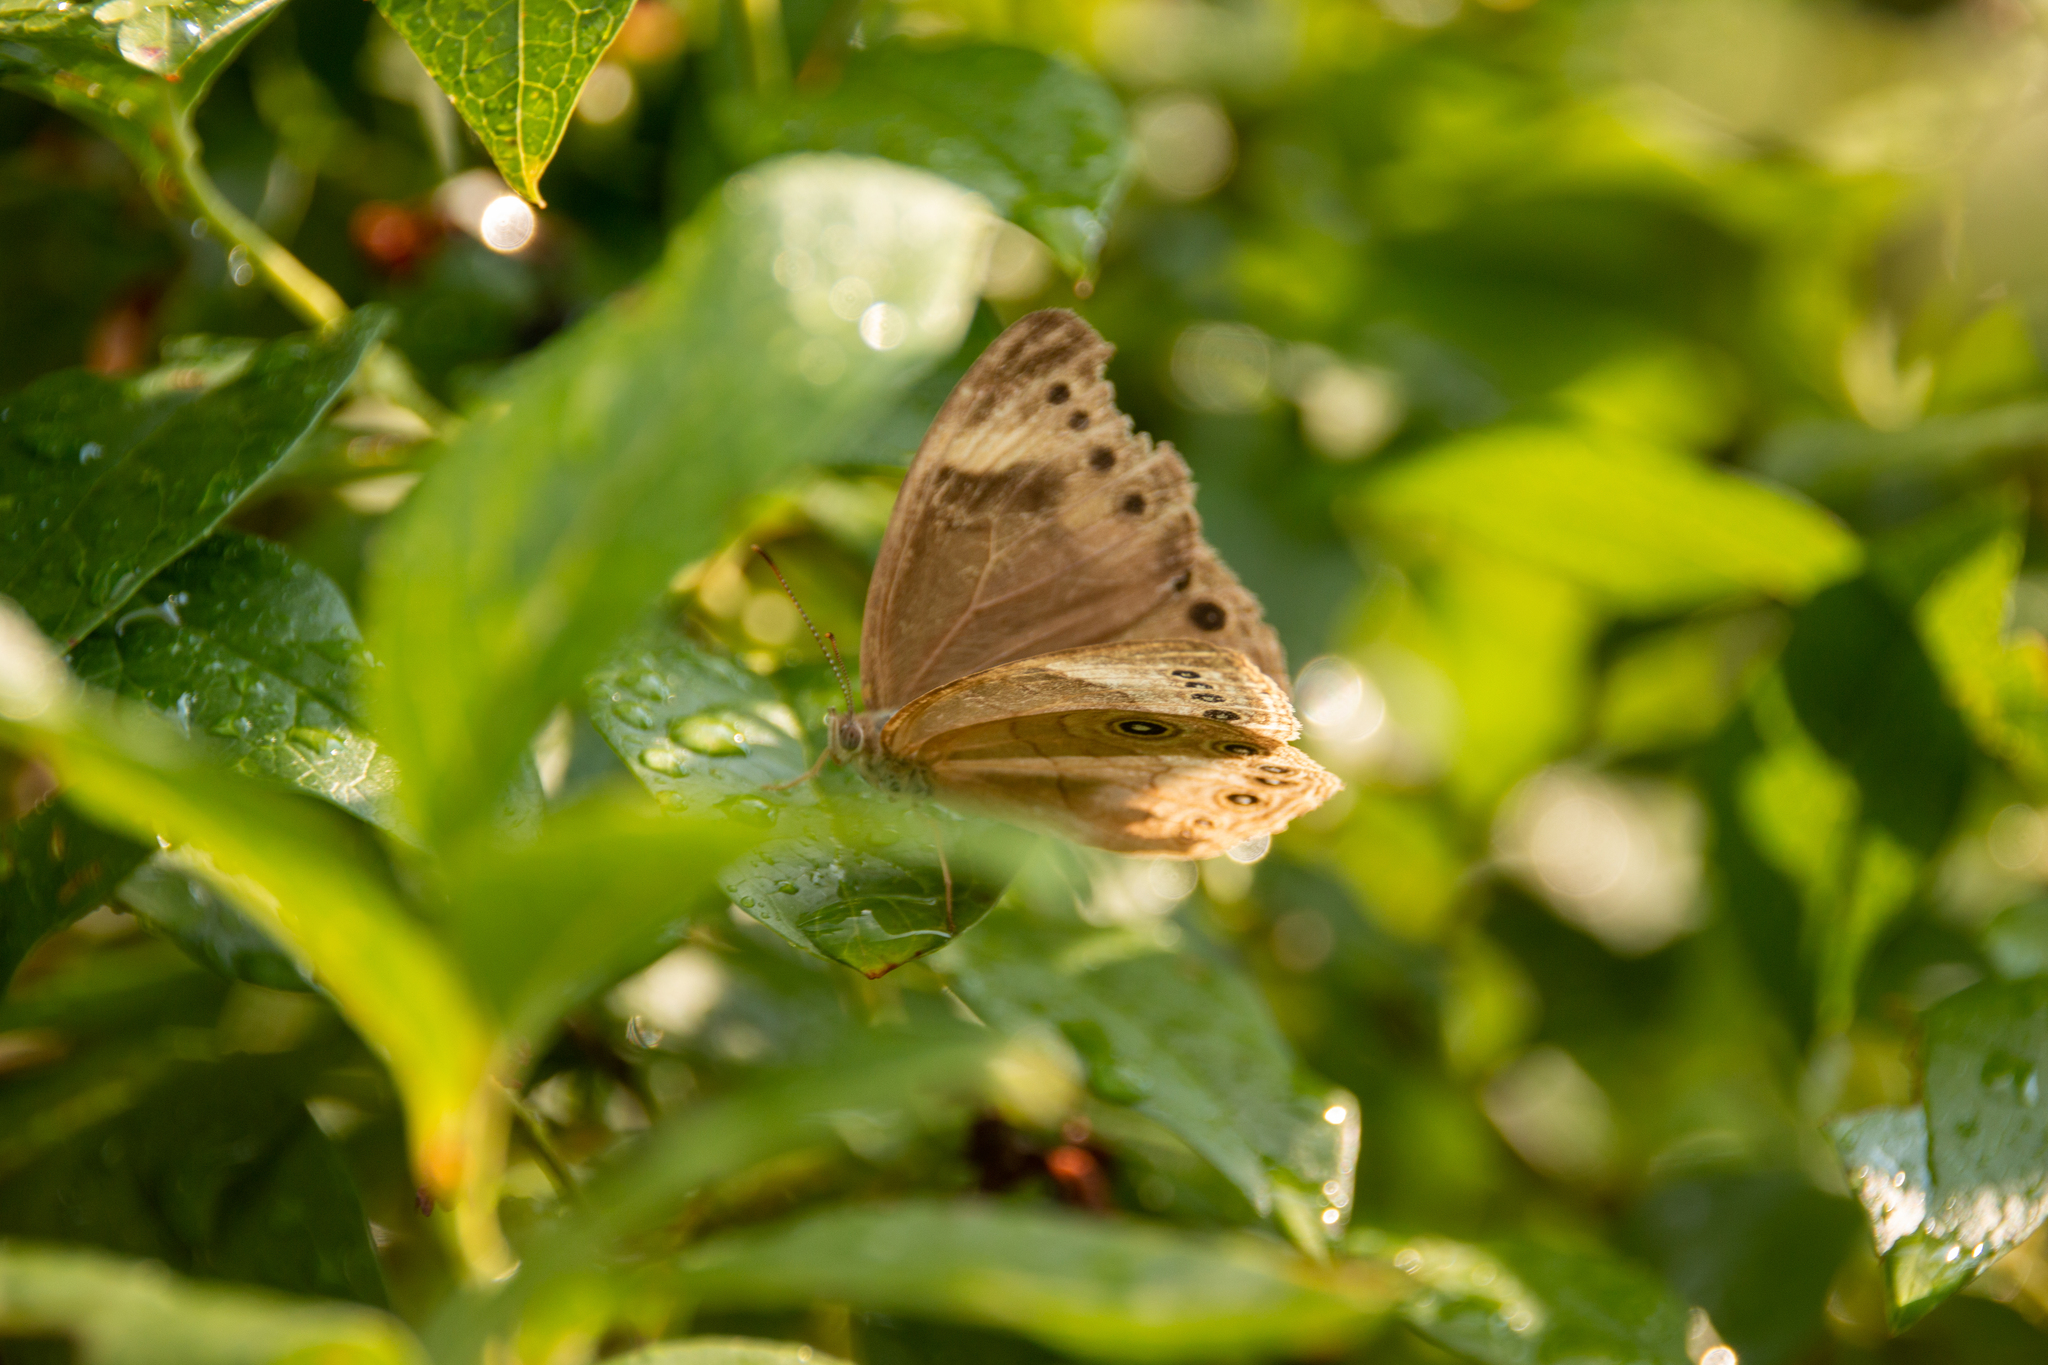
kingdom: Animalia
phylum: Arthropoda
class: Insecta
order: Lepidoptera
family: Nymphalidae
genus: Lethe
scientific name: Lethe eurydice
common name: Eyed brown
